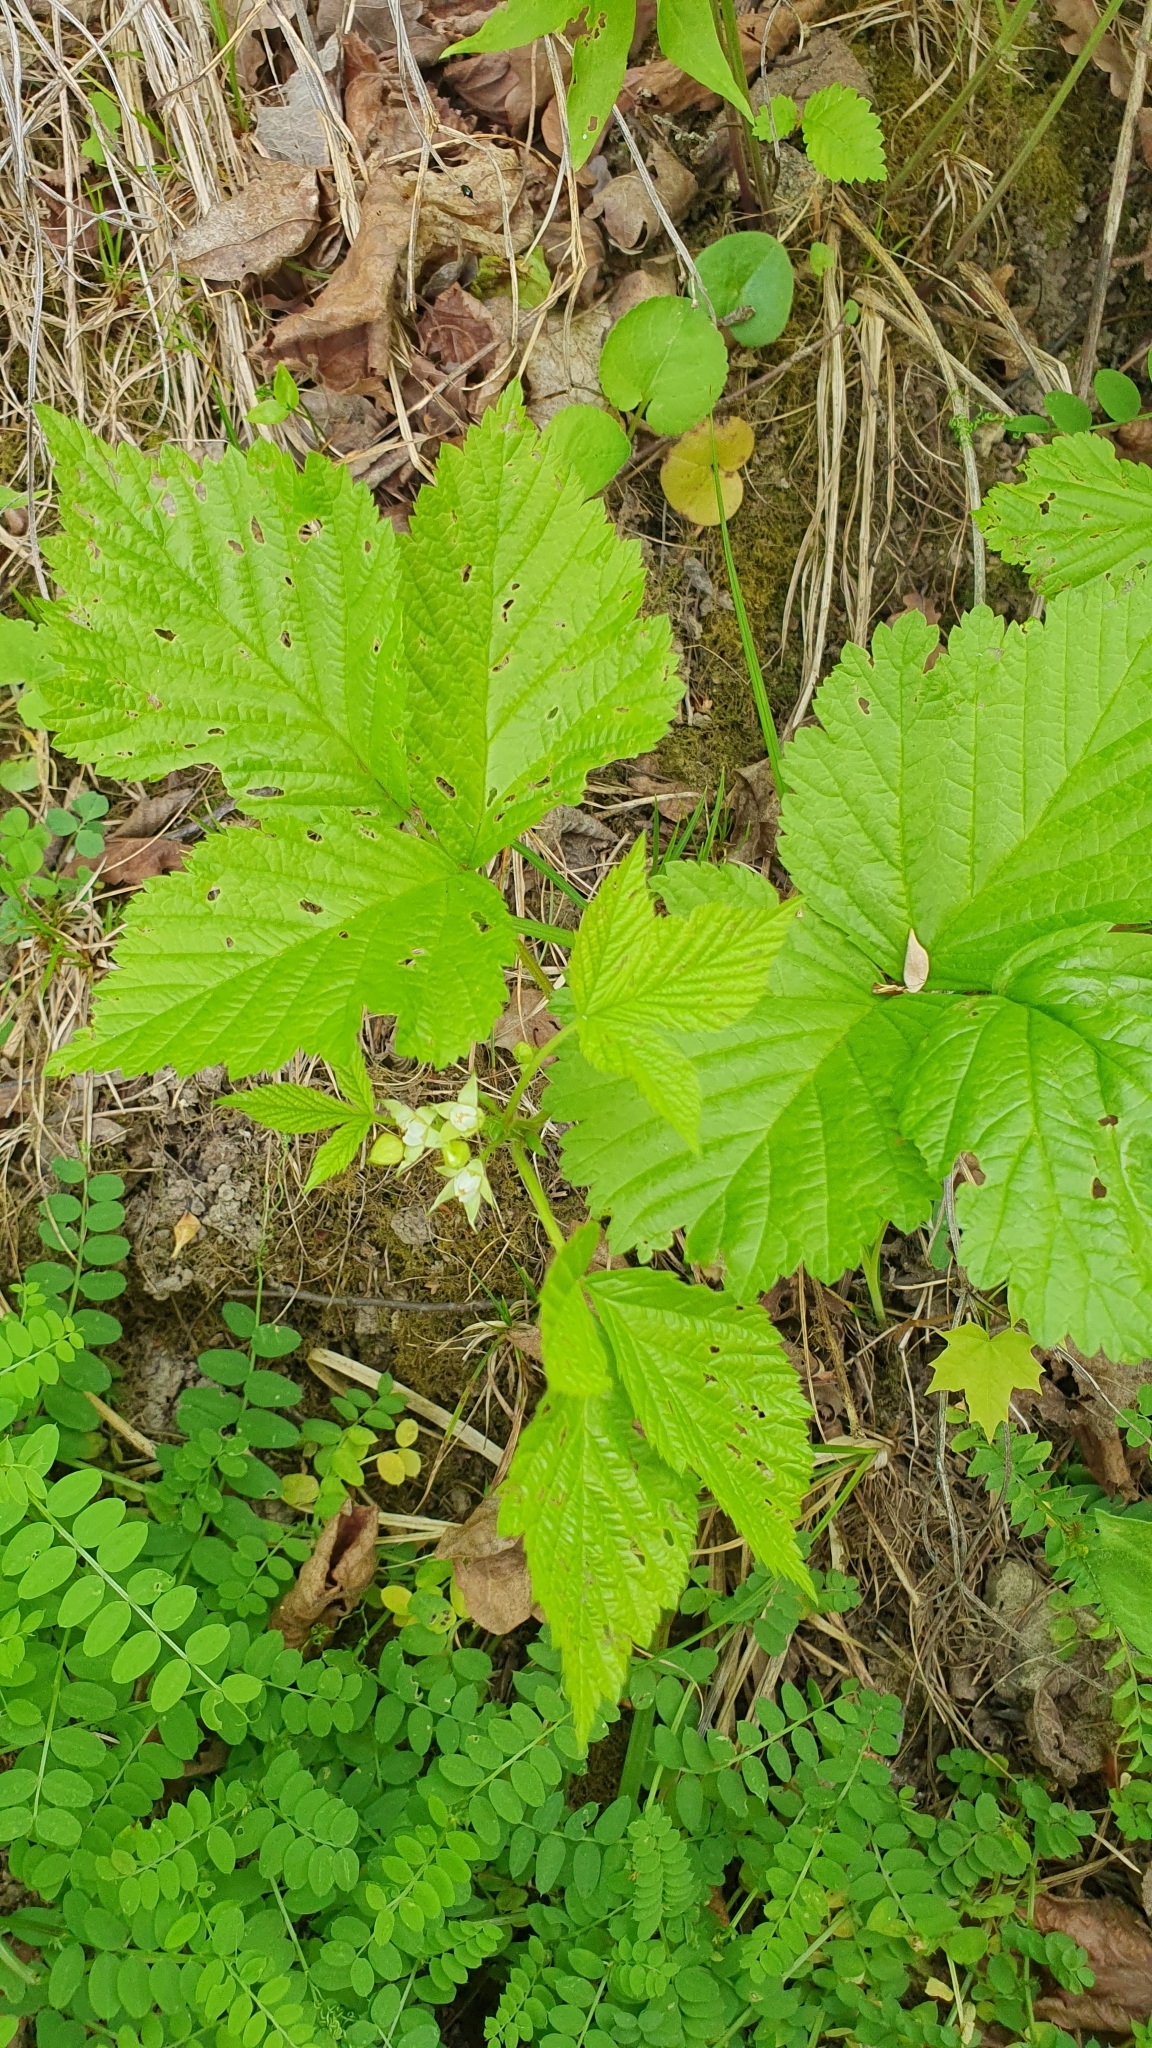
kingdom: Plantae
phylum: Tracheophyta
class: Magnoliopsida
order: Rosales
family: Rosaceae
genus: Rubus
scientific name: Rubus saxatilis
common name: Stone bramble
